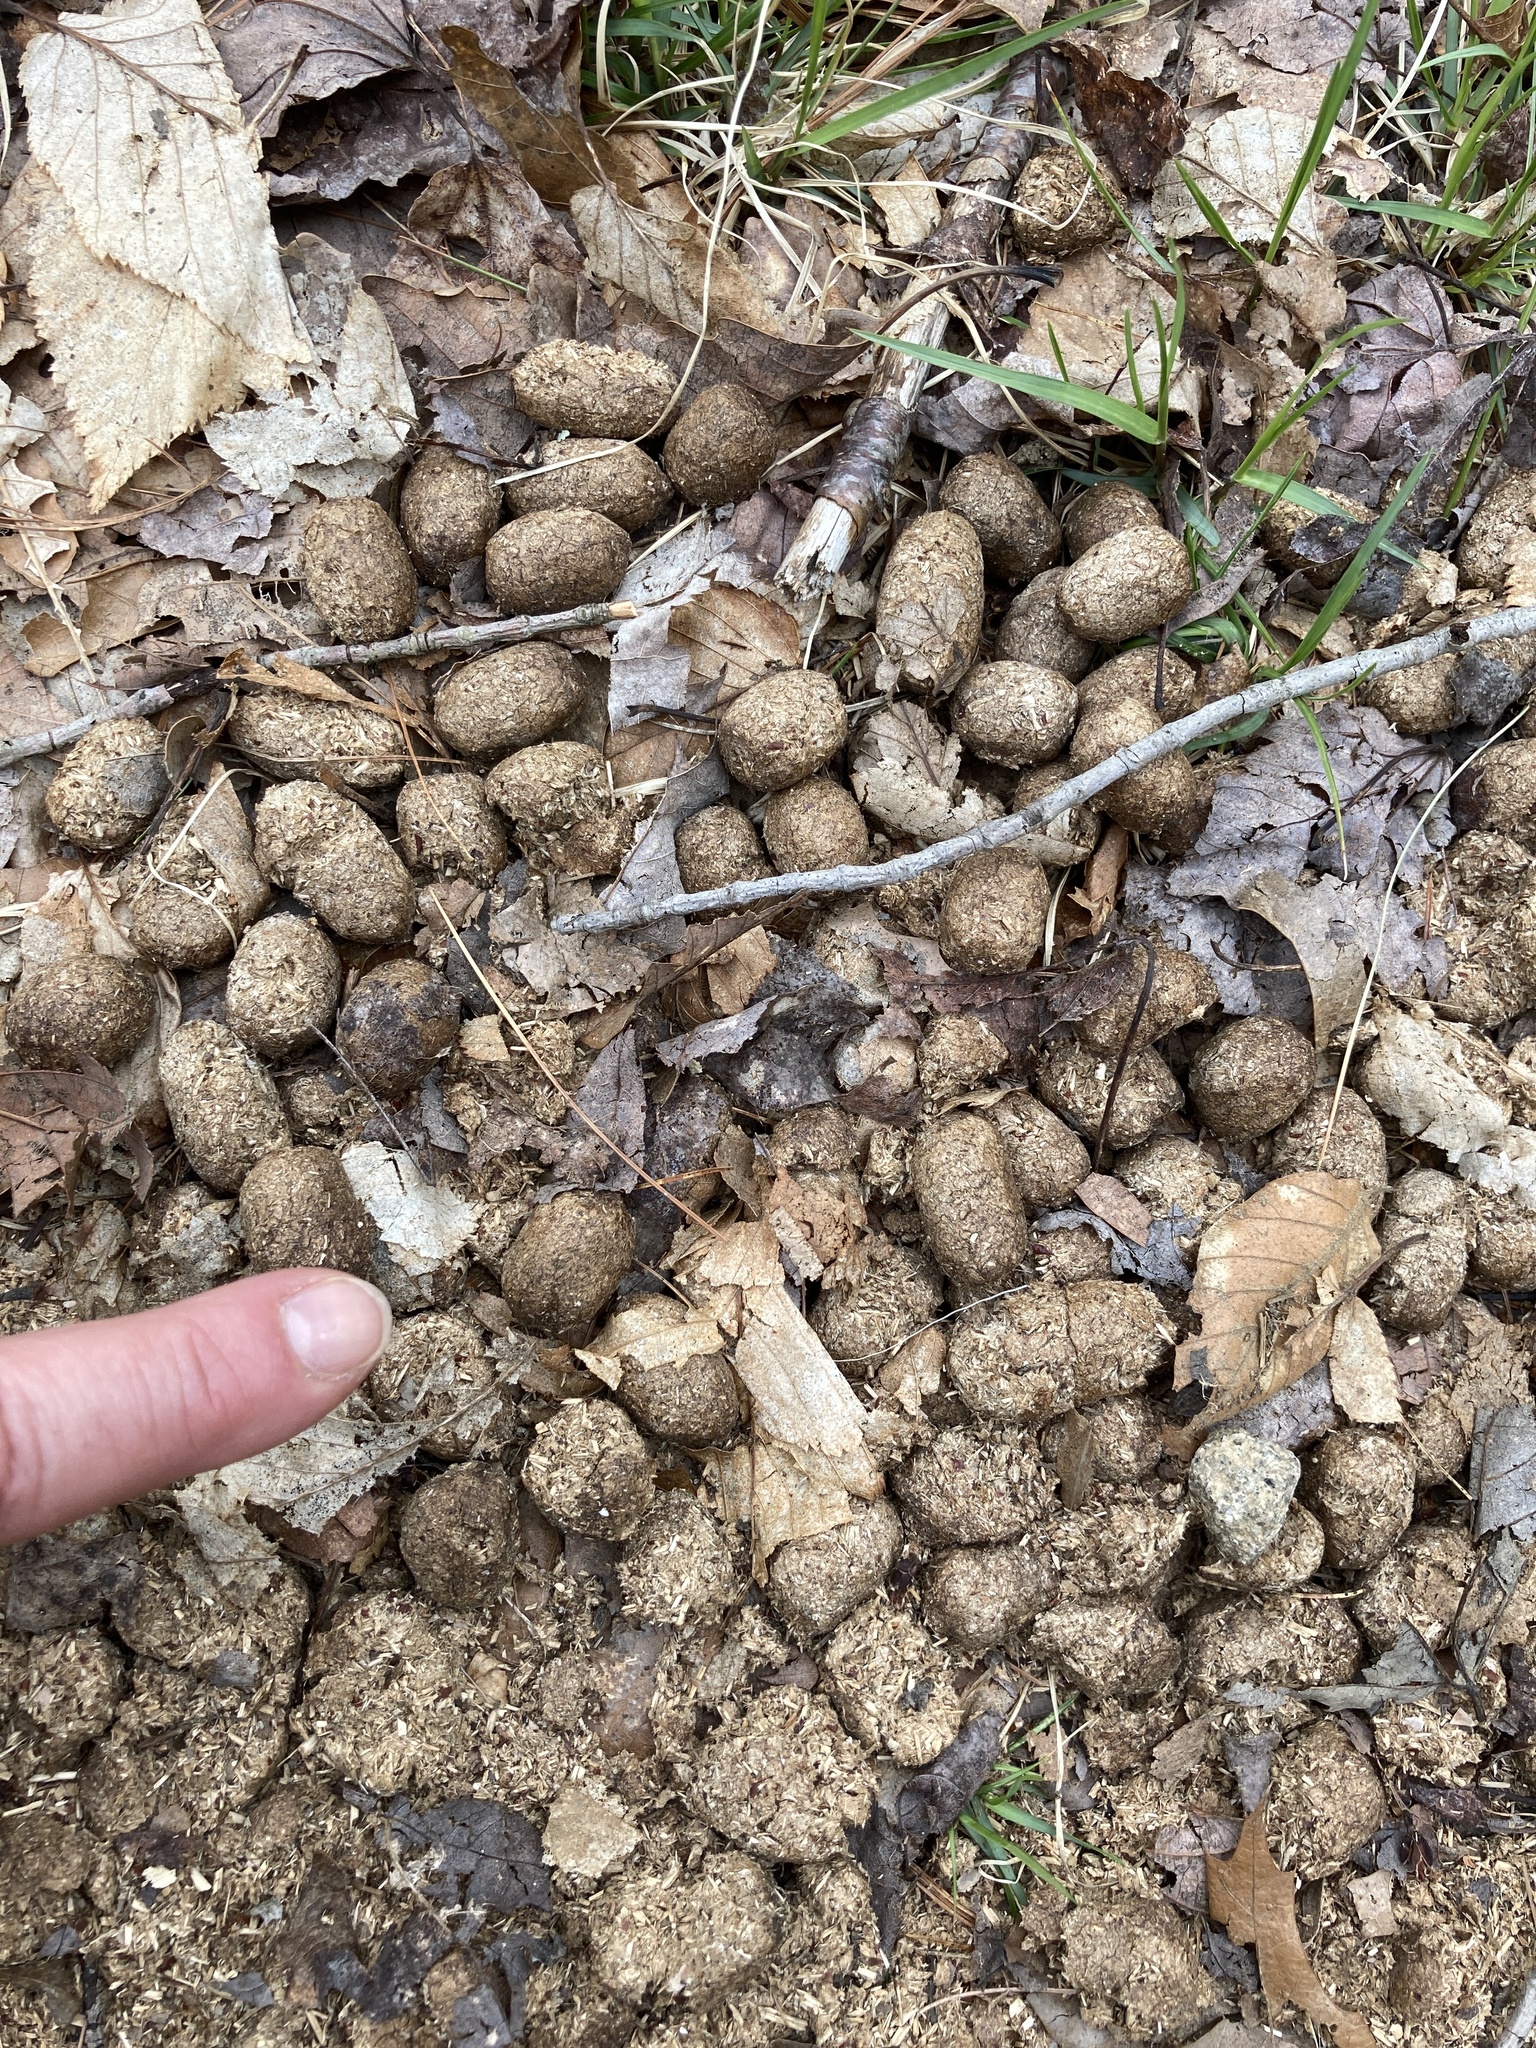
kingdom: Animalia
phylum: Chordata
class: Mammalia
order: Artiodactyla
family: Cervidae
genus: Alces
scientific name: Alces alces
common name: Moose
